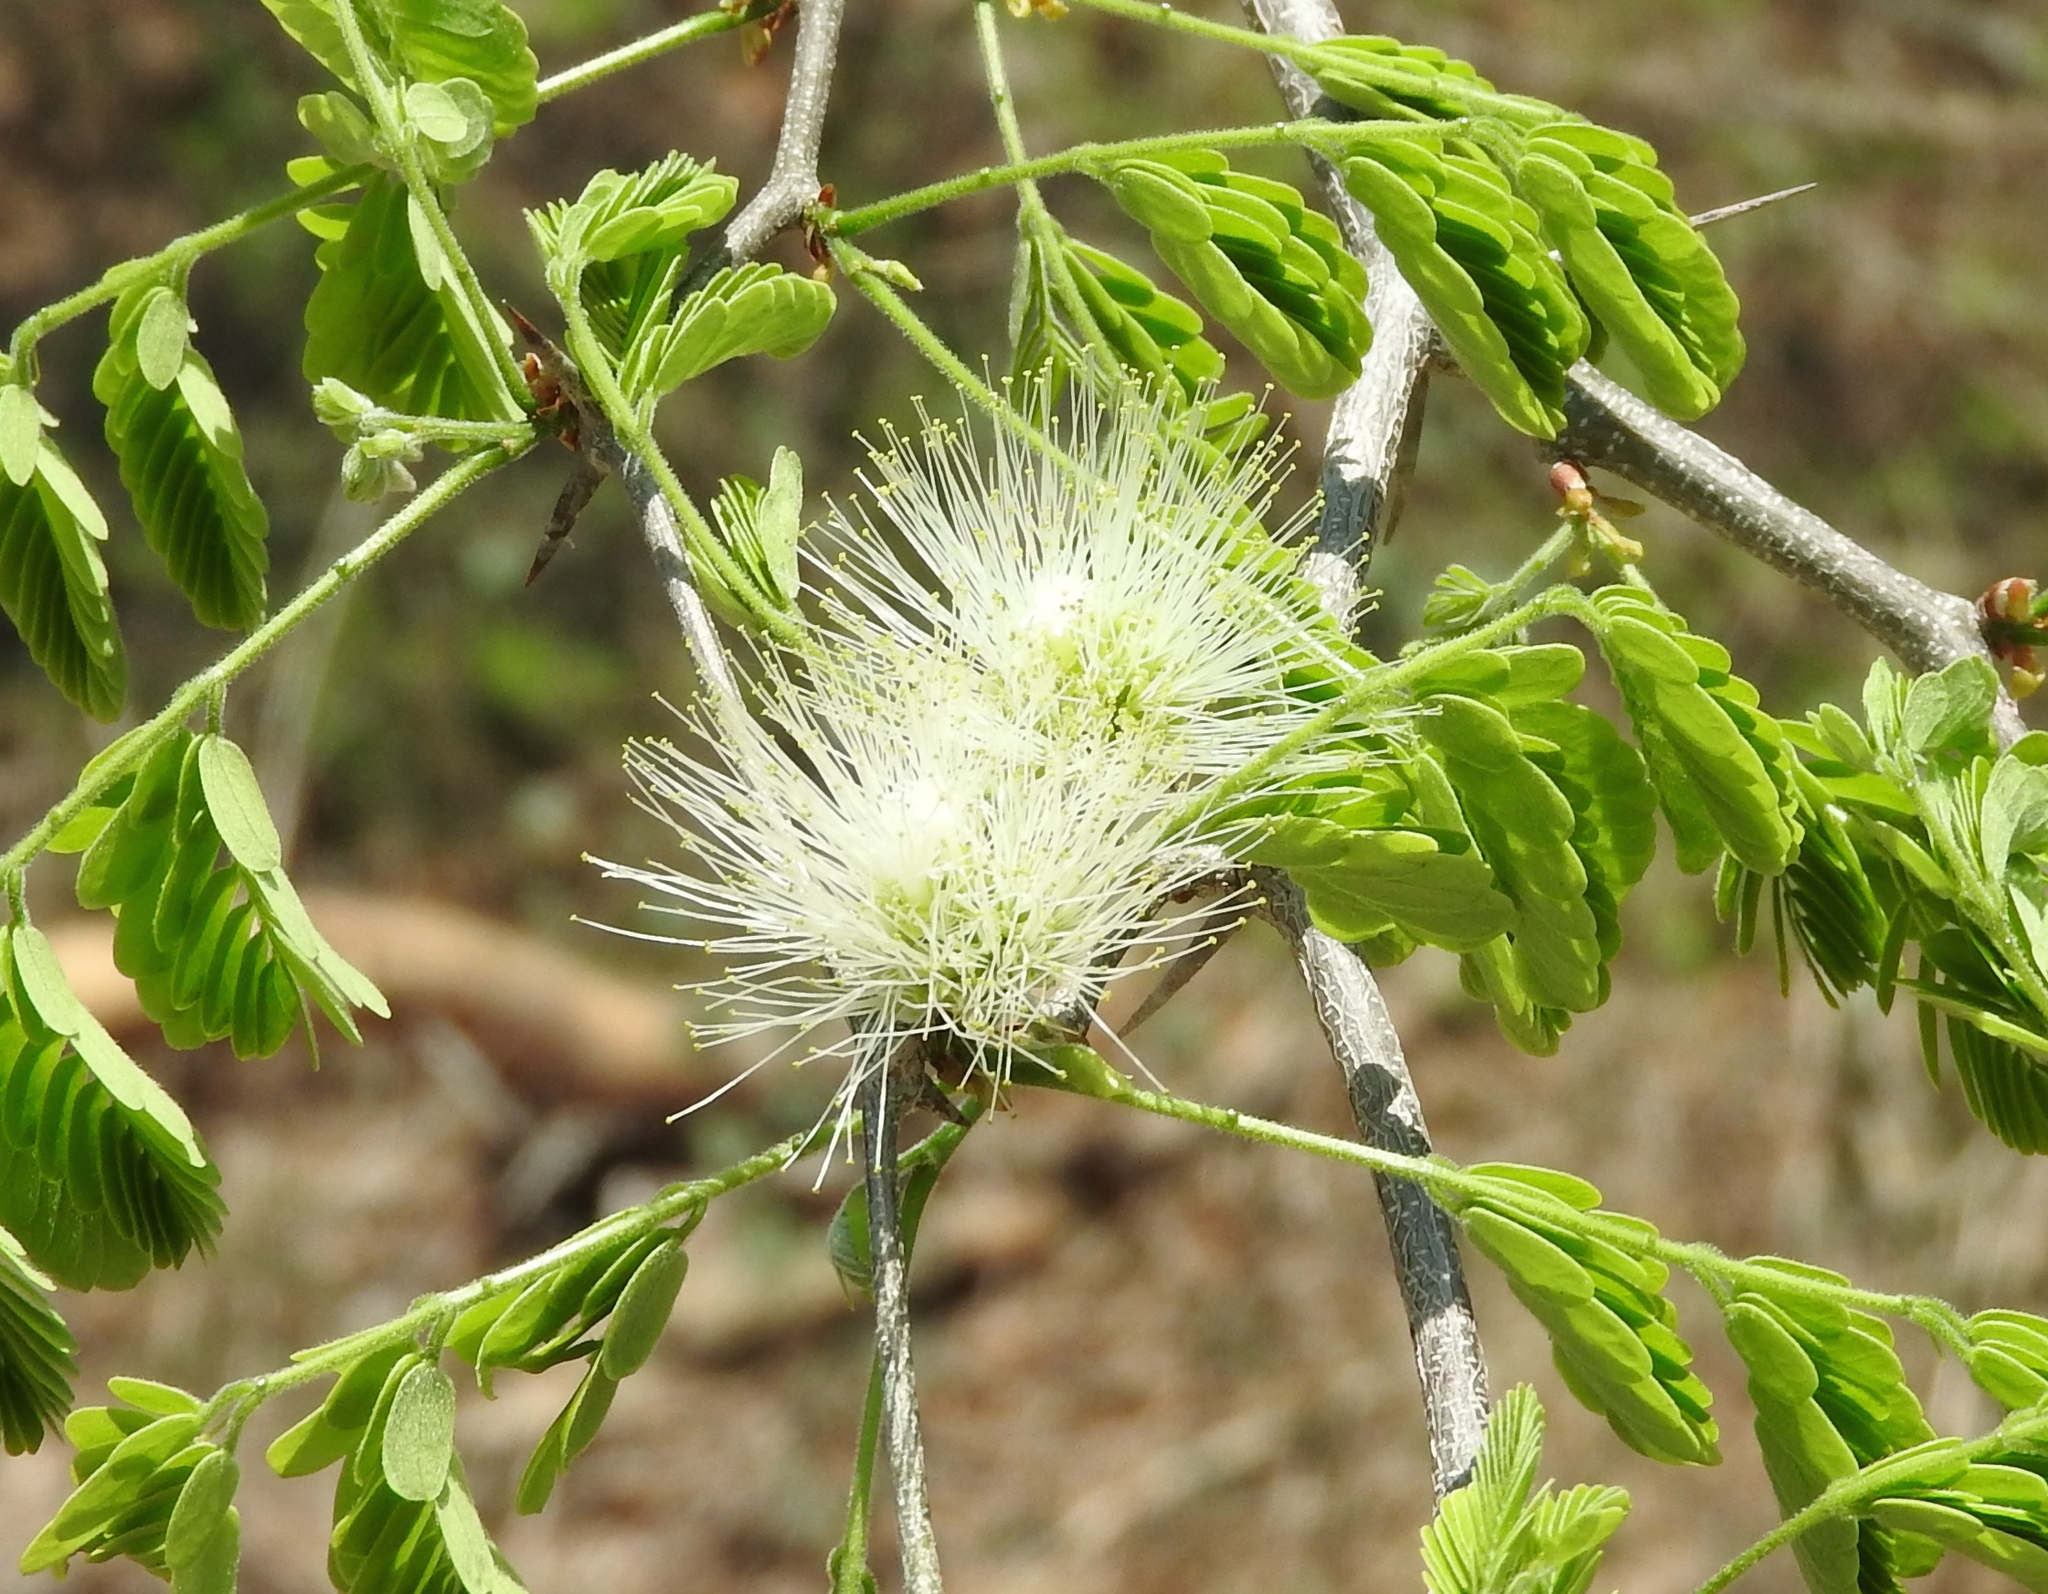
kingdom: Plantae
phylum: Tracheophyta
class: Magnoliopsida
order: Fabales
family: Fabaceae
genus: Chloroleucon
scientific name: Chloroleucon mangense
